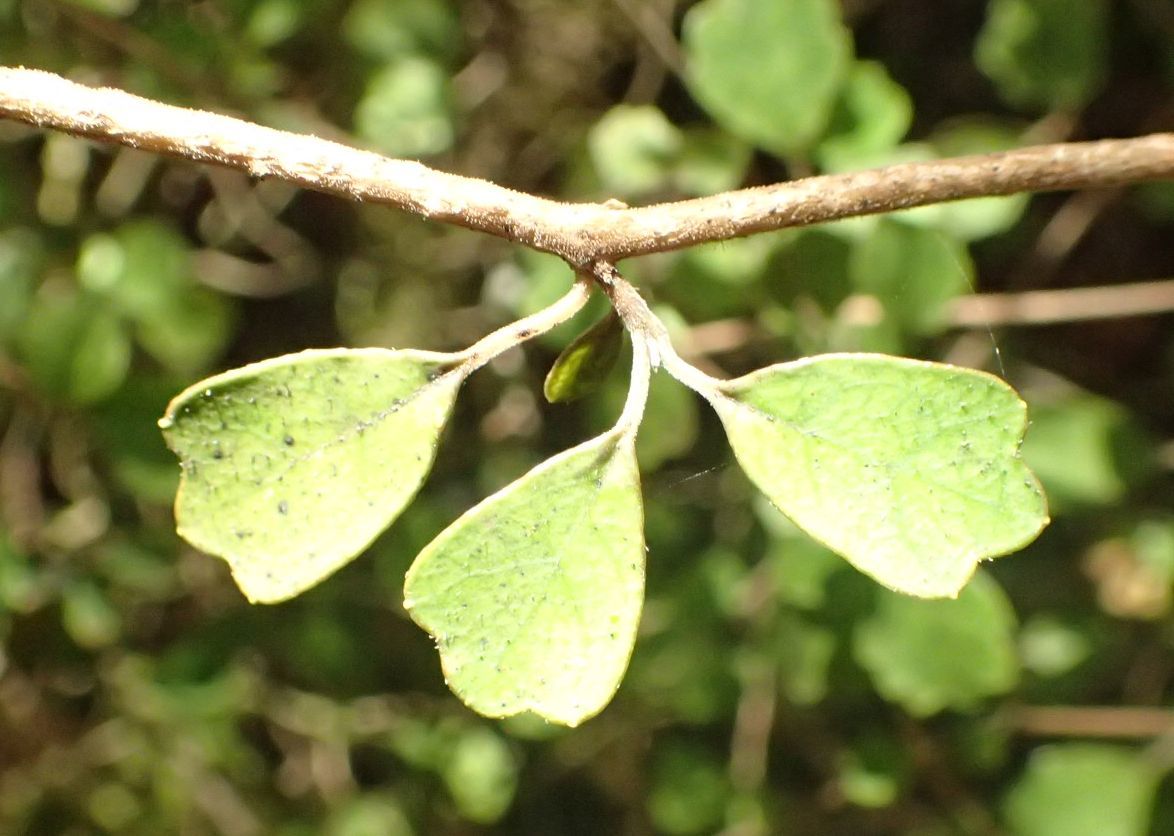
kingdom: Plantae
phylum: Tracheophyta
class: Magnoliopsida
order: Apiales
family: Pennantiaceae
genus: Pennantia
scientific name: Pennantia corymbosa
